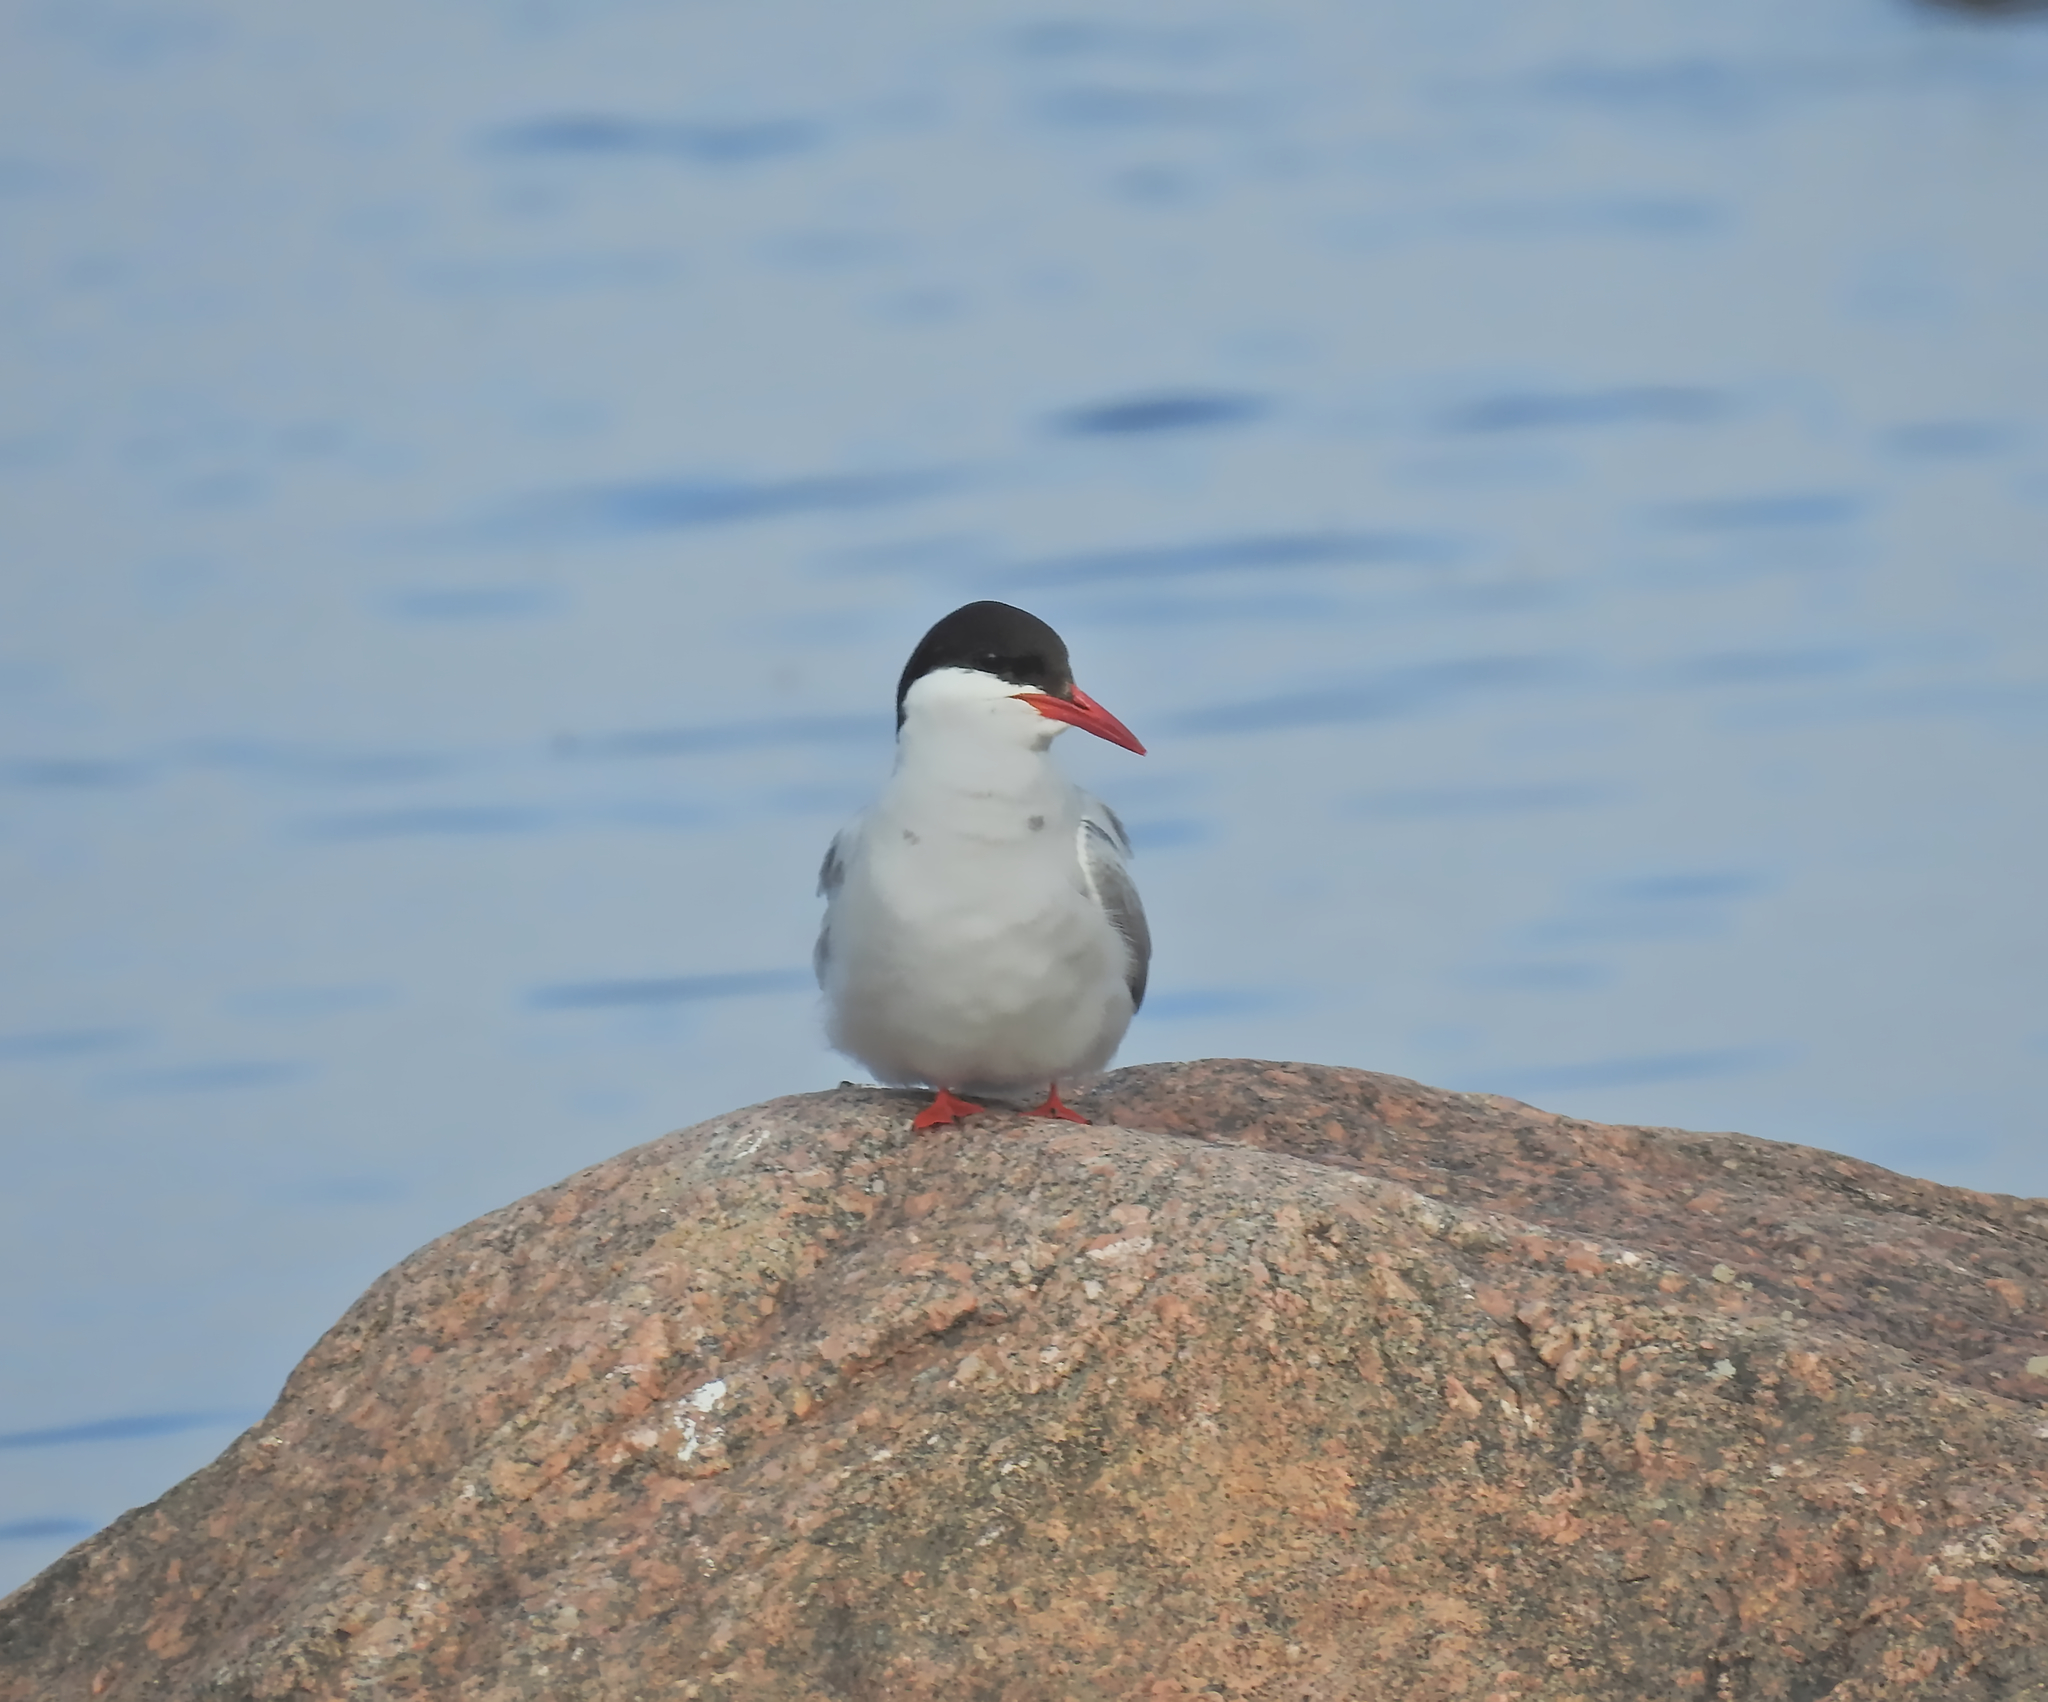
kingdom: Animalia
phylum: Chordata
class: Aves
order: Charadriiformes
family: Laridae
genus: Sterna
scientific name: Sterna paradisaea
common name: Arctic tern
